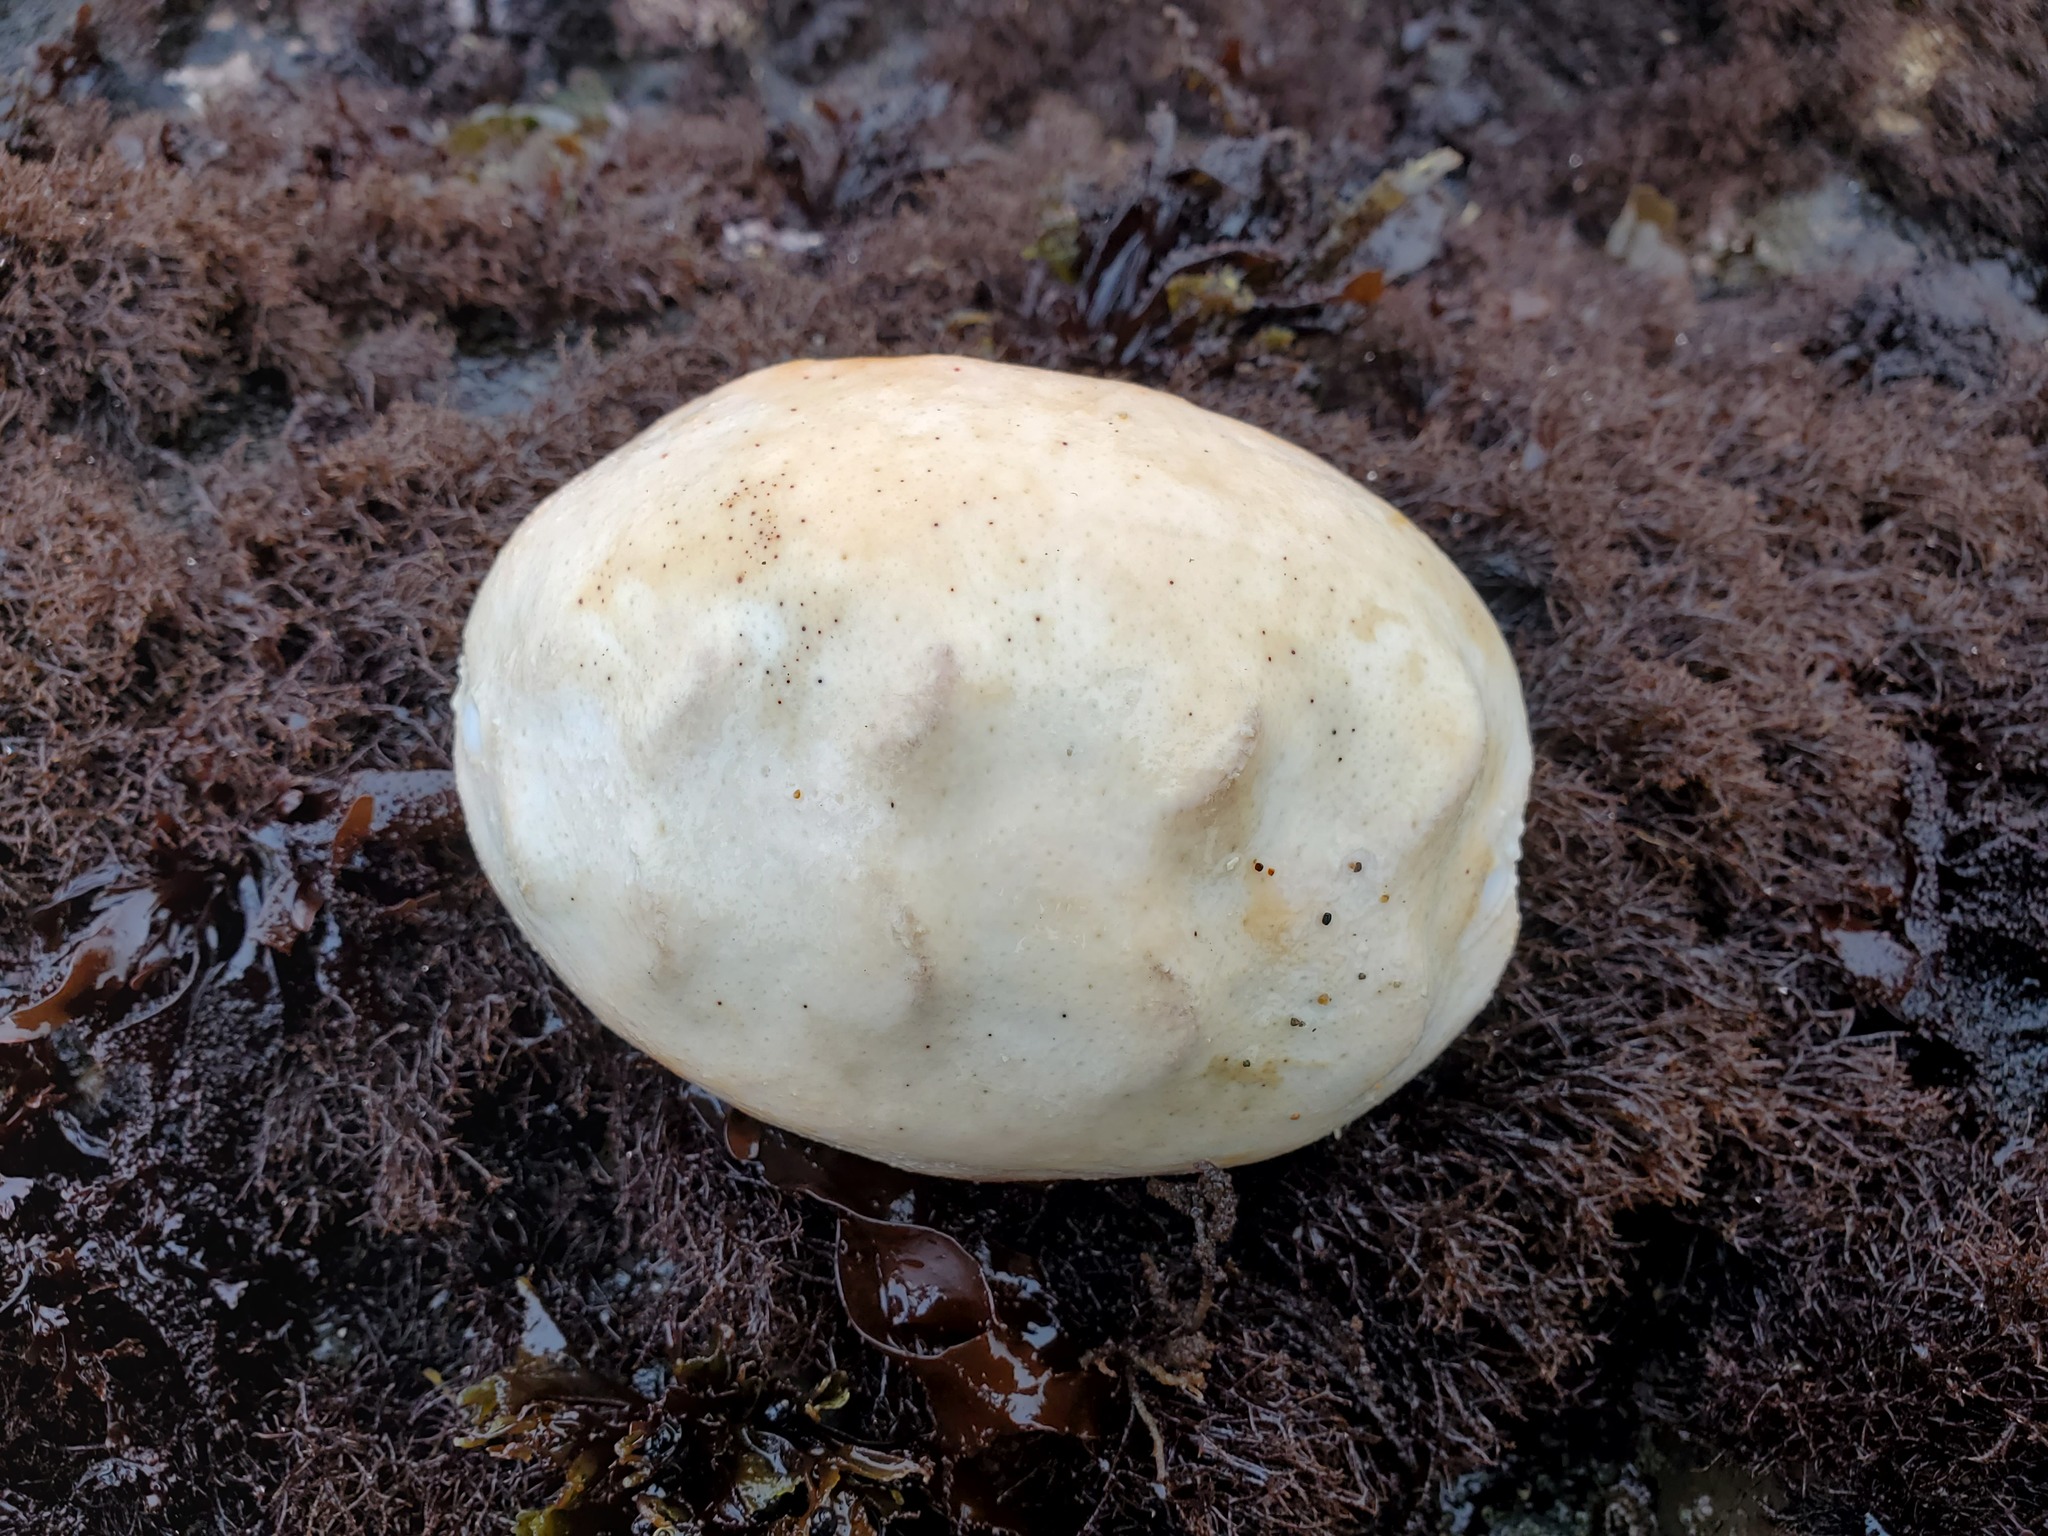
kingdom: Animalia
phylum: Mollusca
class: Polyplacophora
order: Chitonida
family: Acanthochitonidae
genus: Cryptochiton
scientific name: Cryptochiton stelleri
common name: Giant pacific chiton
